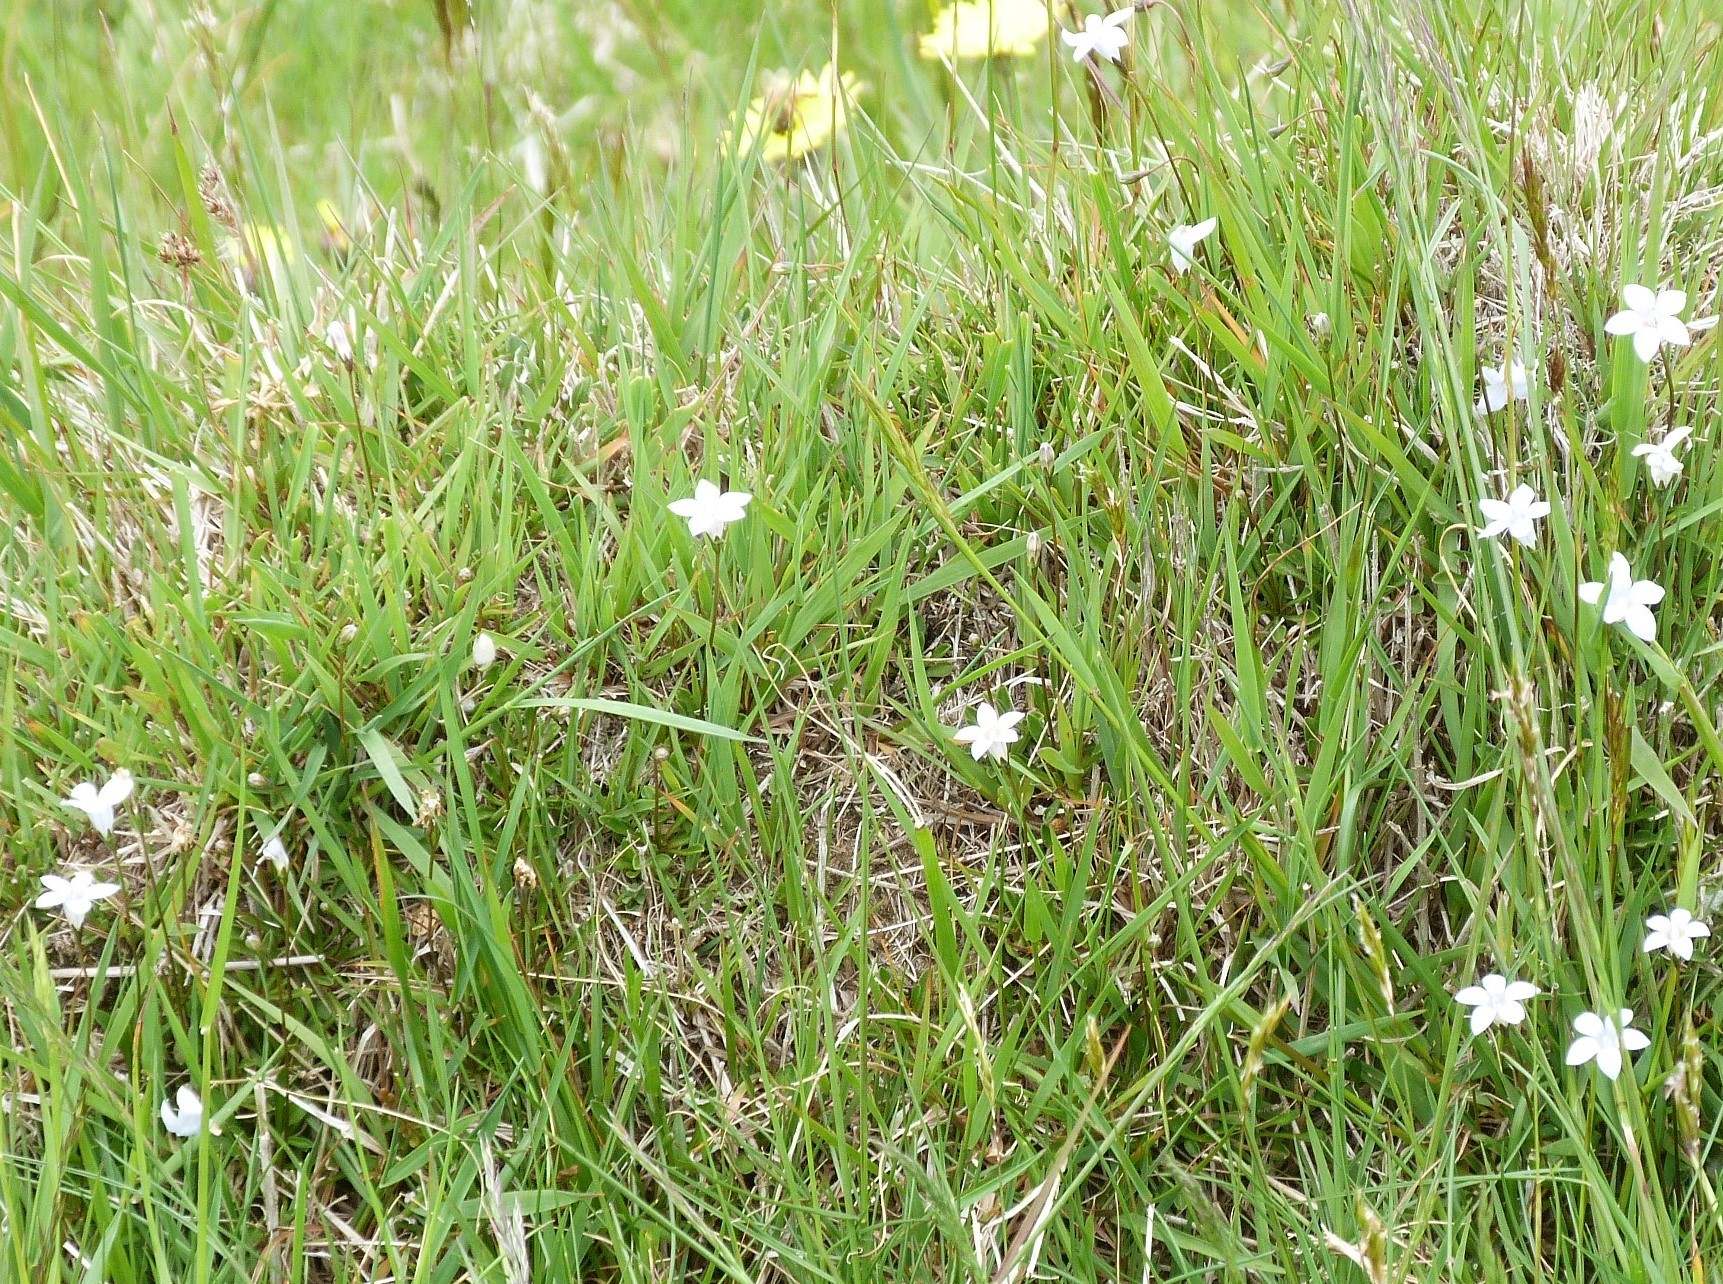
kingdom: Plantae
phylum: Tracheophyta
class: Magnoliopsida
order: Asterales
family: Campanulaceae
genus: Wahlenbergia
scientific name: Wahlenbergia albomarginata
